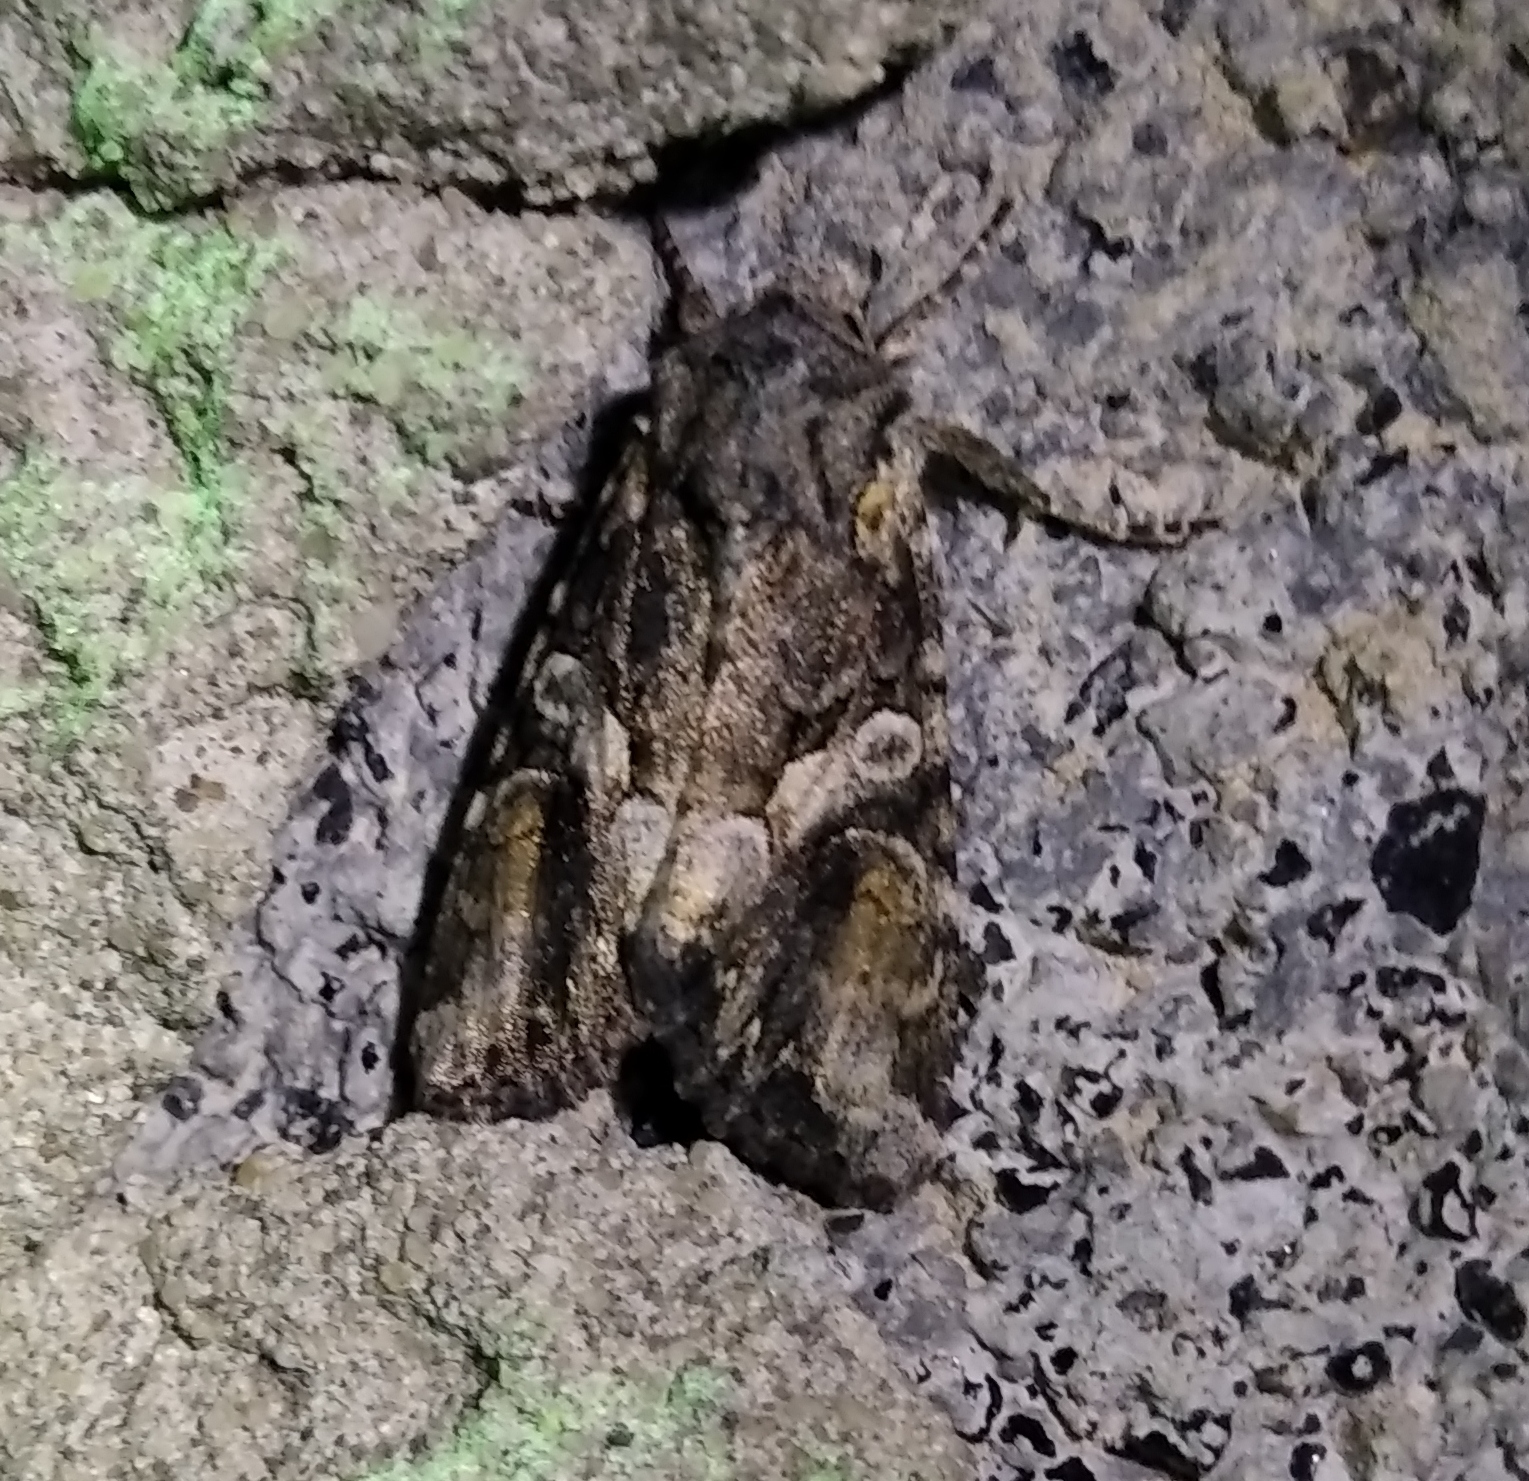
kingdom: Animalia
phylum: Arthropoda
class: Insecta
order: Lepidoptera
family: Noctuidae
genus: Lacanobia
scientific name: Lacanobia contigua
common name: Beautiful brocade
